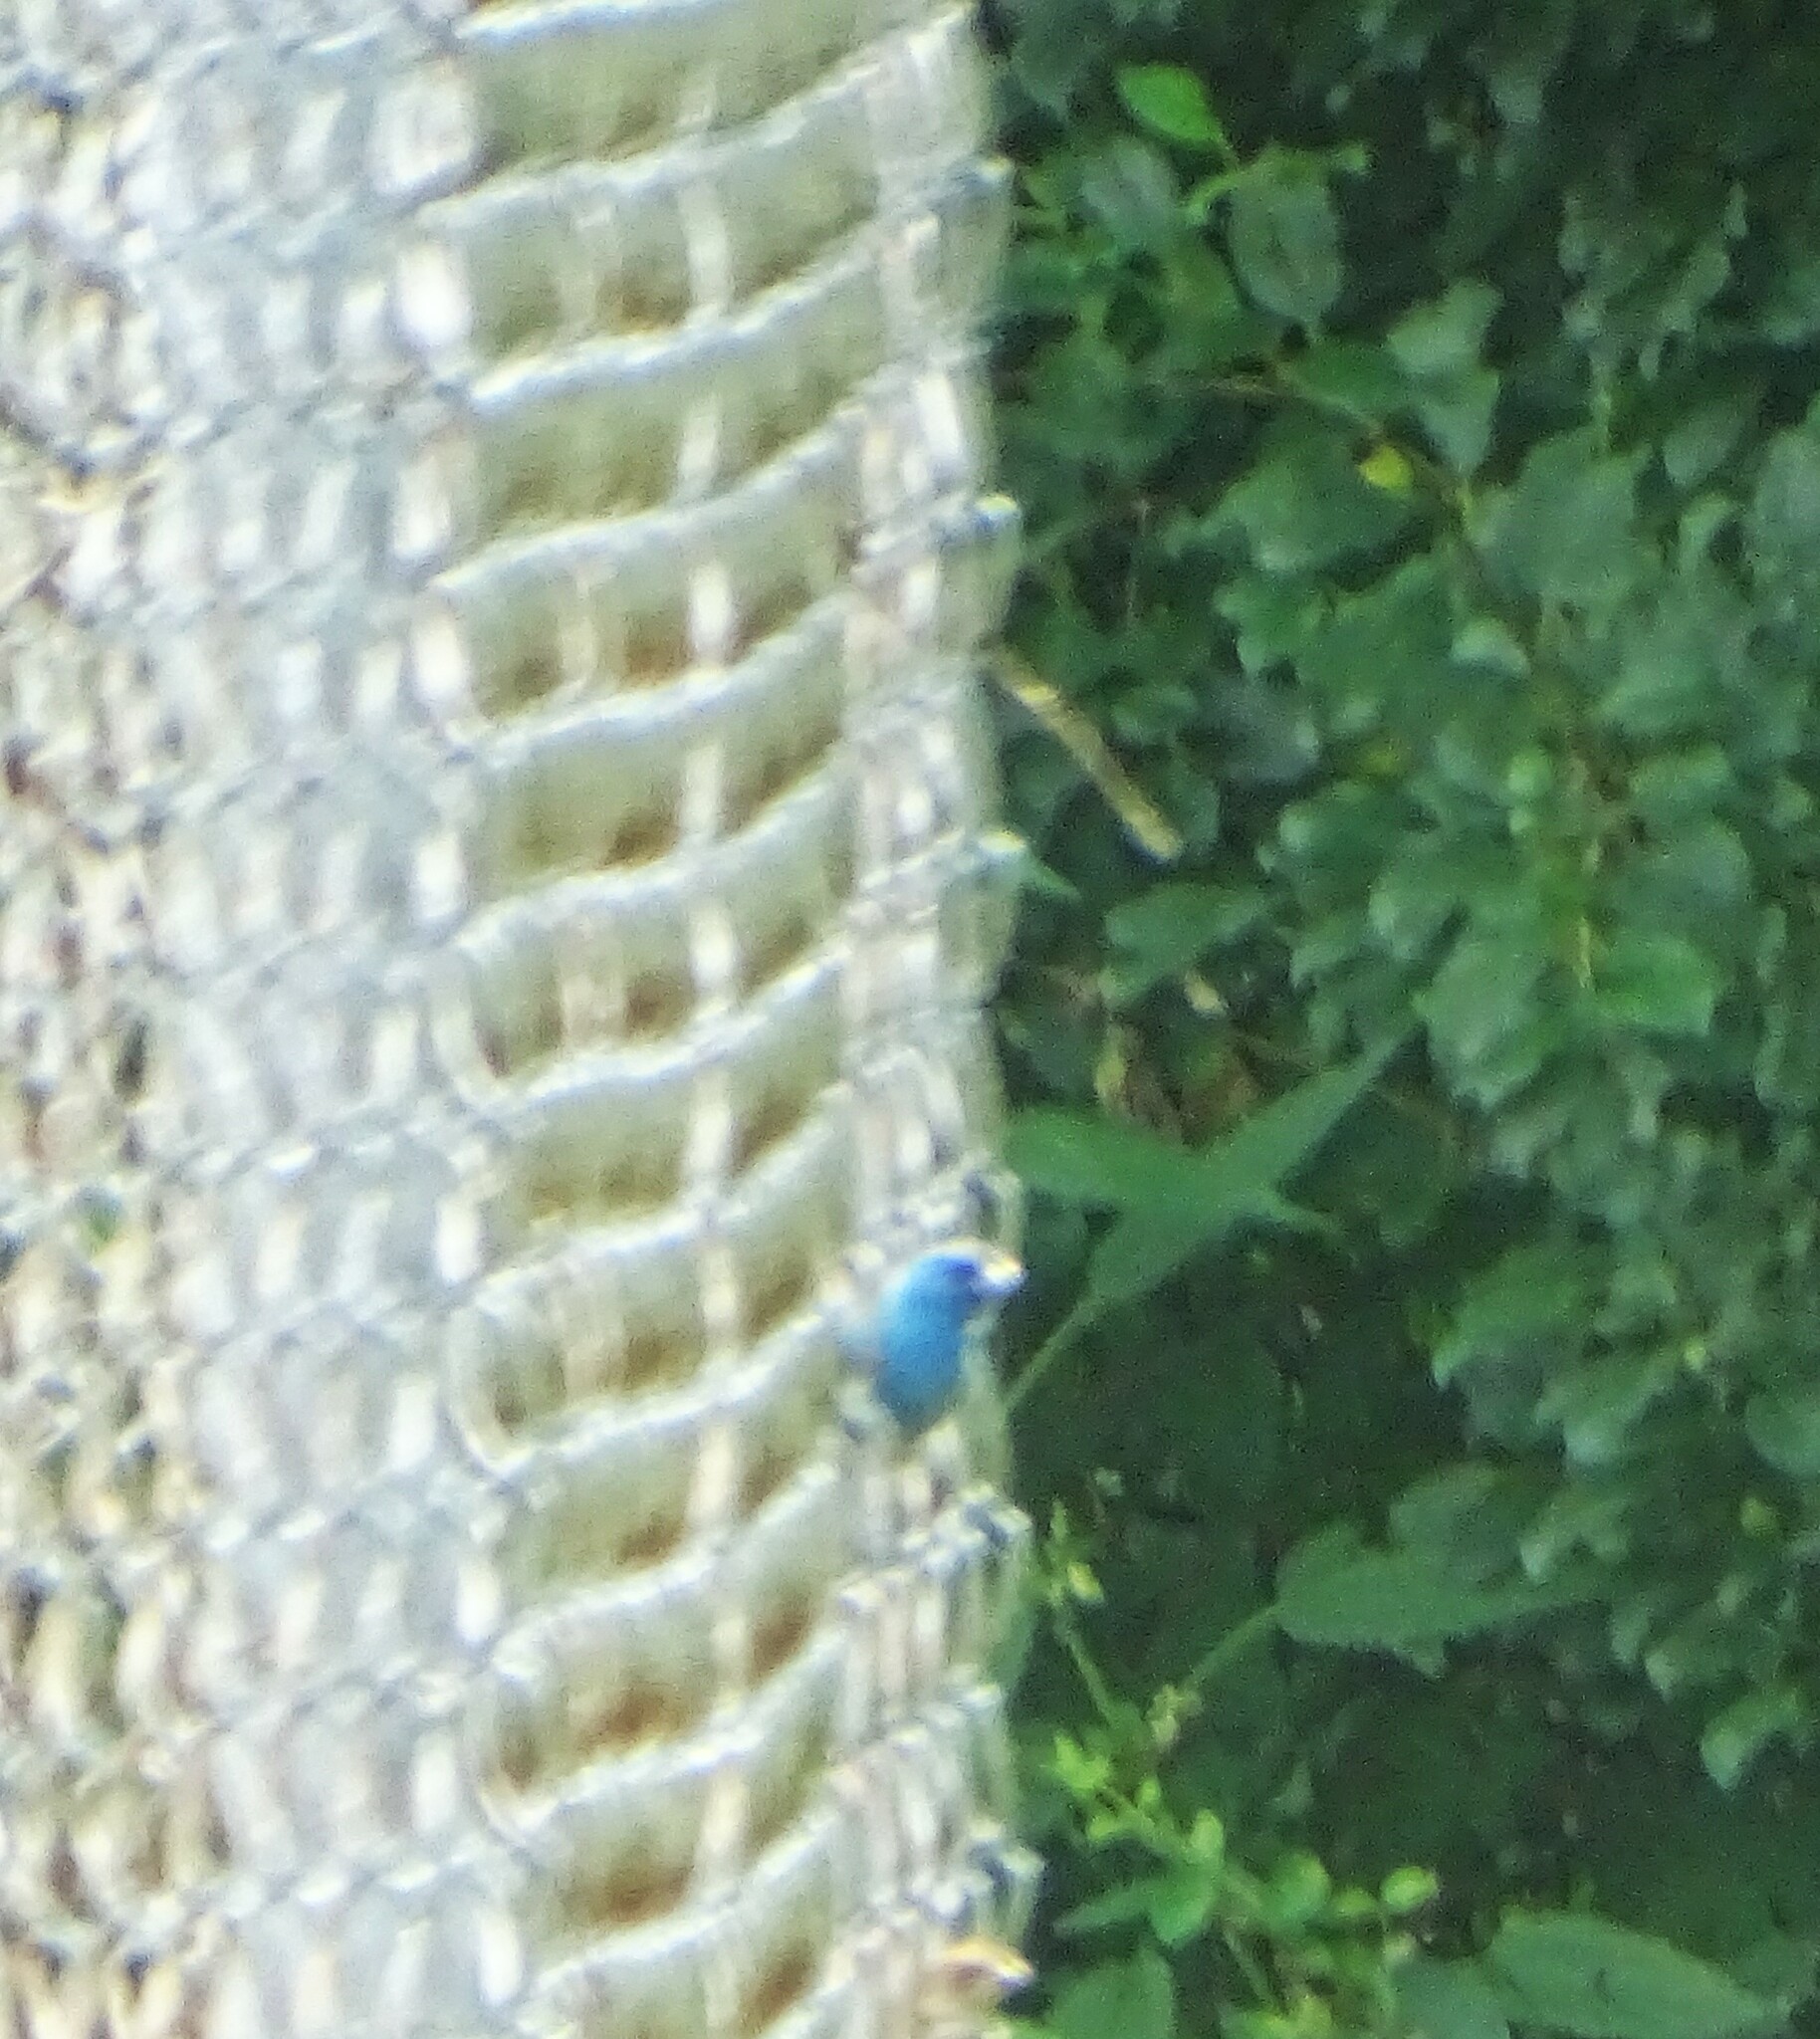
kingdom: Animalia
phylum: Chordata
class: Aves
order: Passeriformes
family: Cardinalidae
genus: Passerina
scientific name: Passerina cyanea
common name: Indigo bunting
